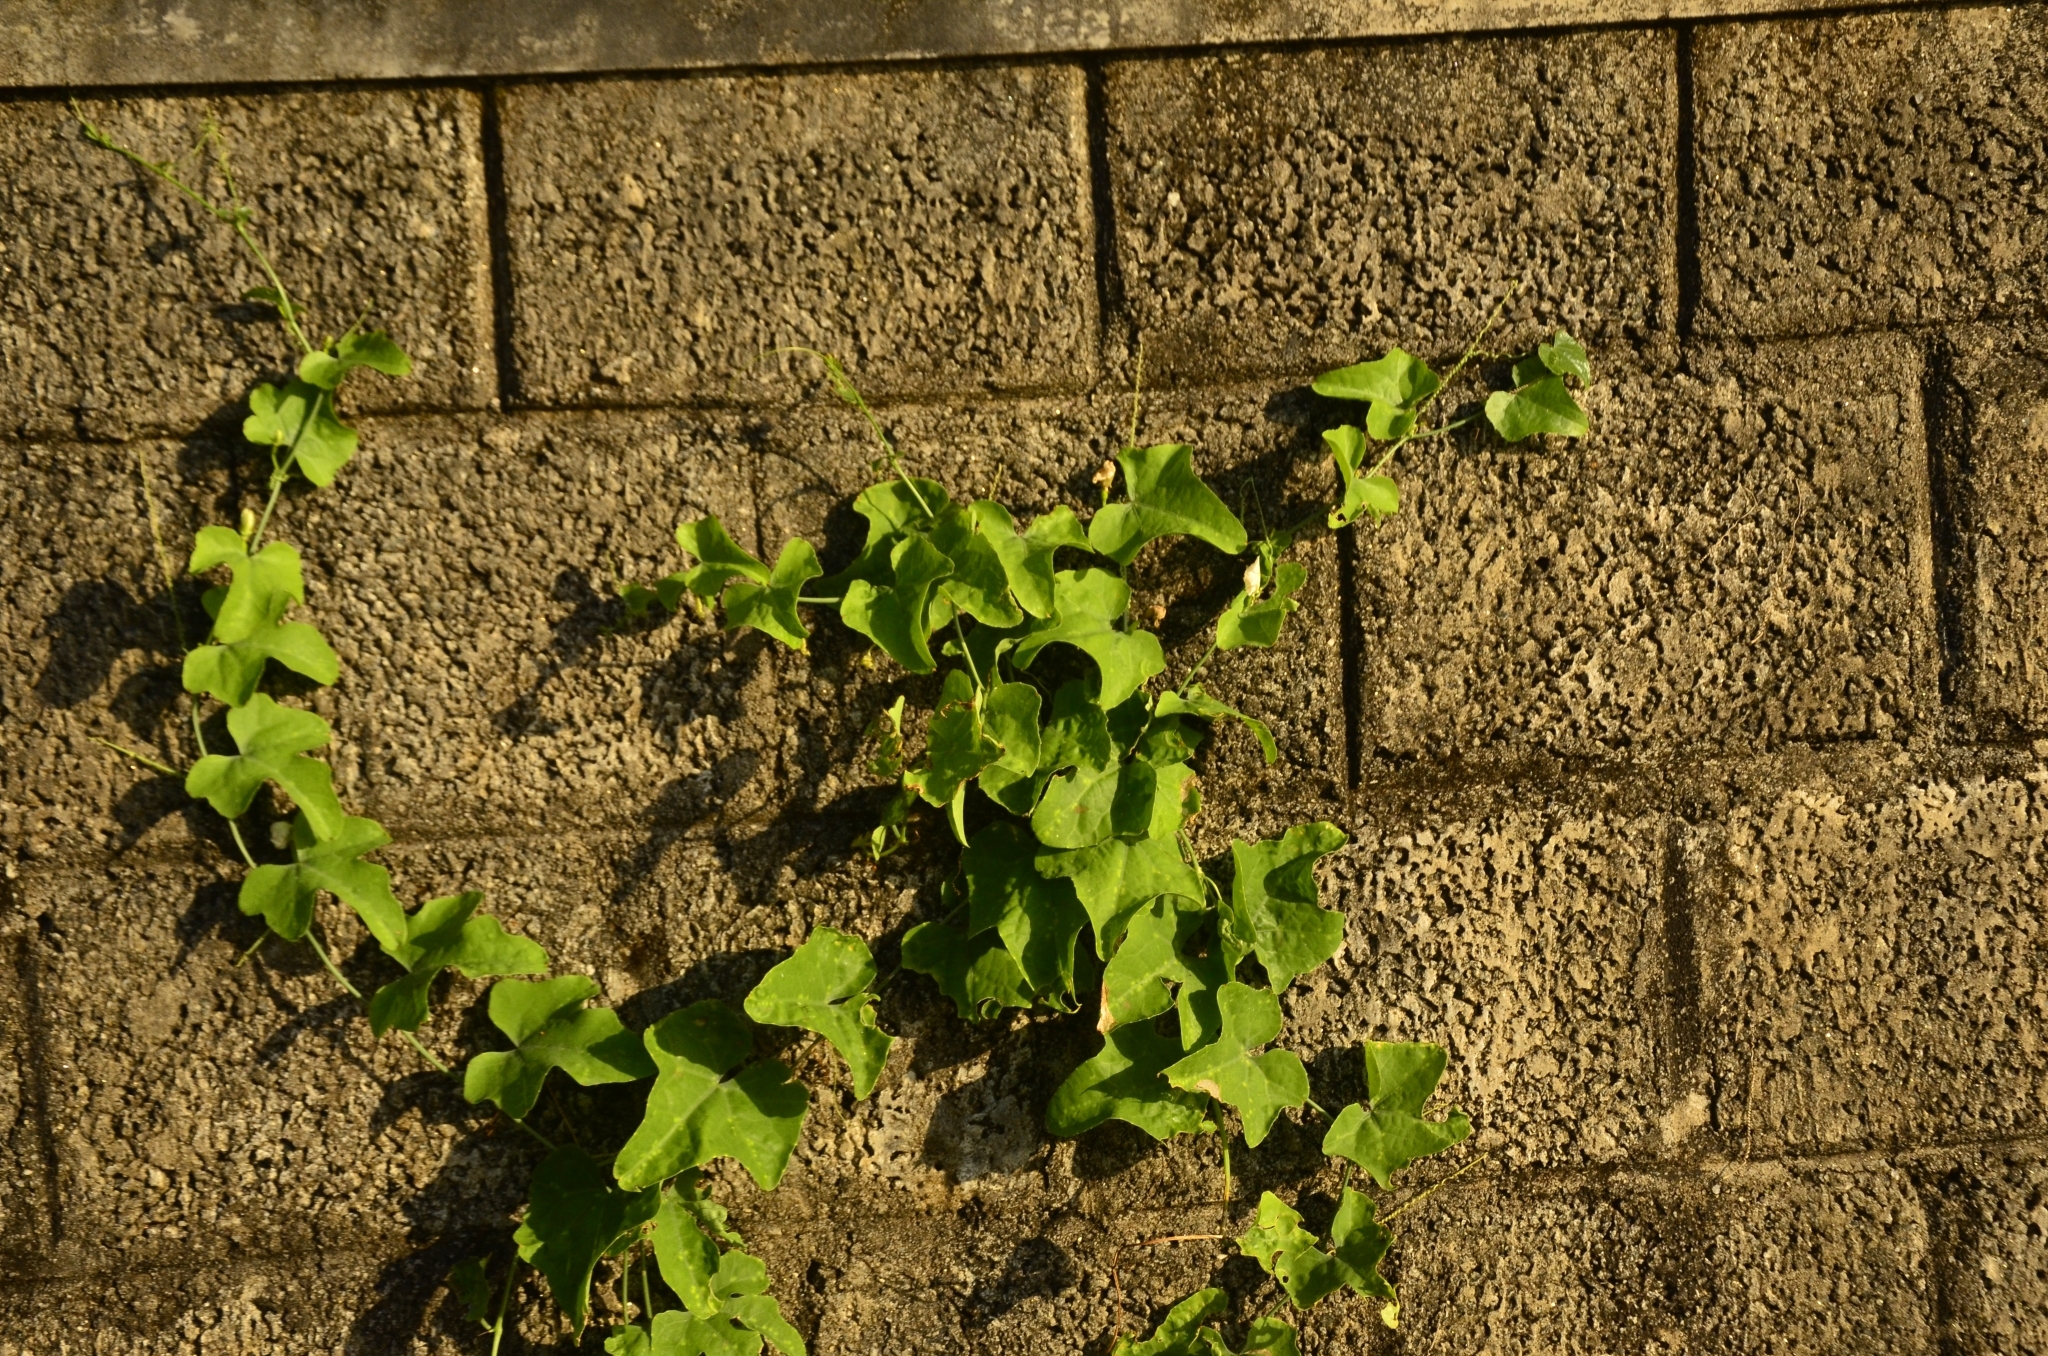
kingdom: Plantae
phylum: Tracheophyta
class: Magnoliopsida
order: Cucurbitales
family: Cucurbitaceae
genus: Coccinia
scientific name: Coccinia grandis
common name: Ivy gourd
